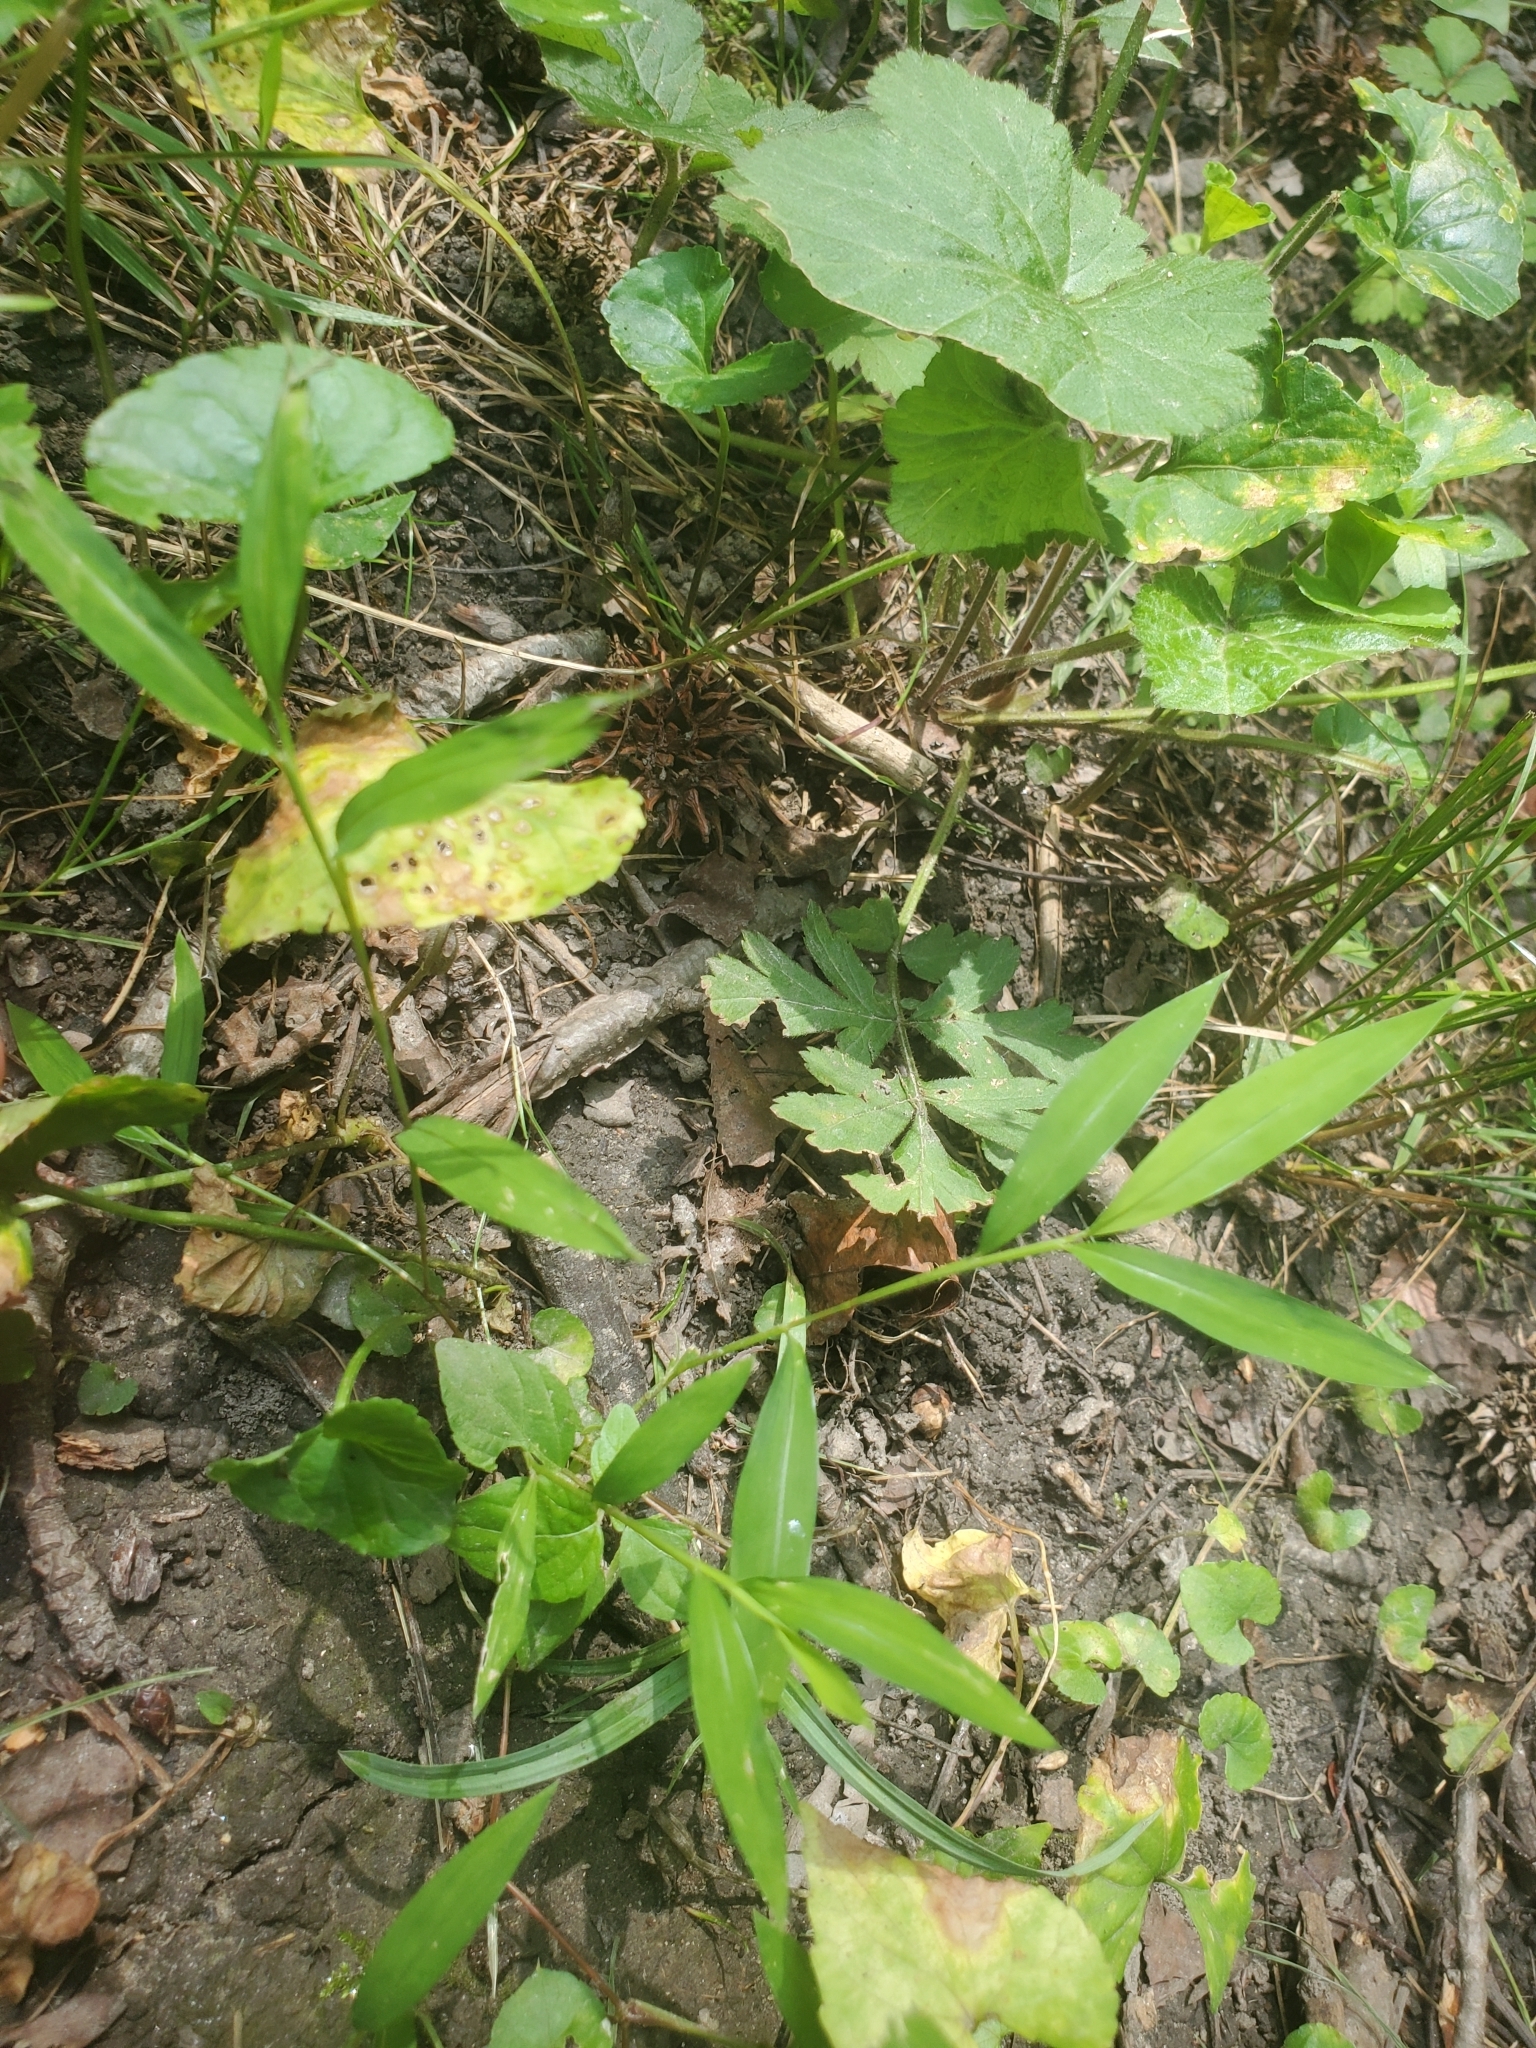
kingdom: Plantae
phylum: Tracheophyta
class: Liliopsida
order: Poales
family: Poaceae
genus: Microstegium
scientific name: Microstegium vimineum
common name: Japanese stiltgrass
